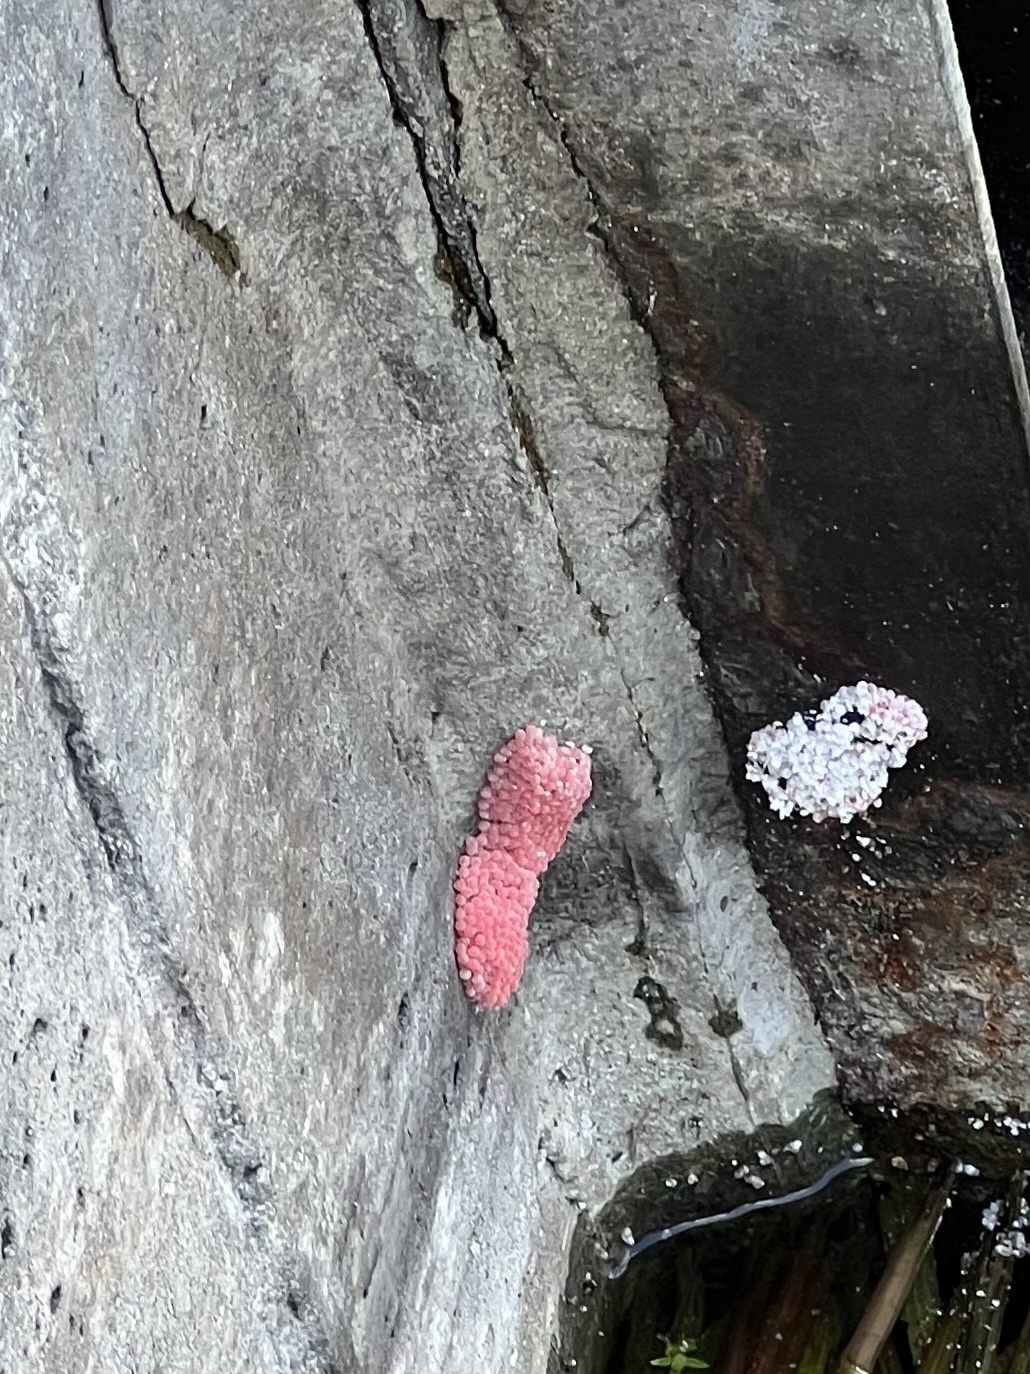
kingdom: Animalia
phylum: Mollusca
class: Gastropoda
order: Architaenioglossa
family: Ampullariidae
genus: Pomacea
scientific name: Pomacea maculata
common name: Giant applesnail
